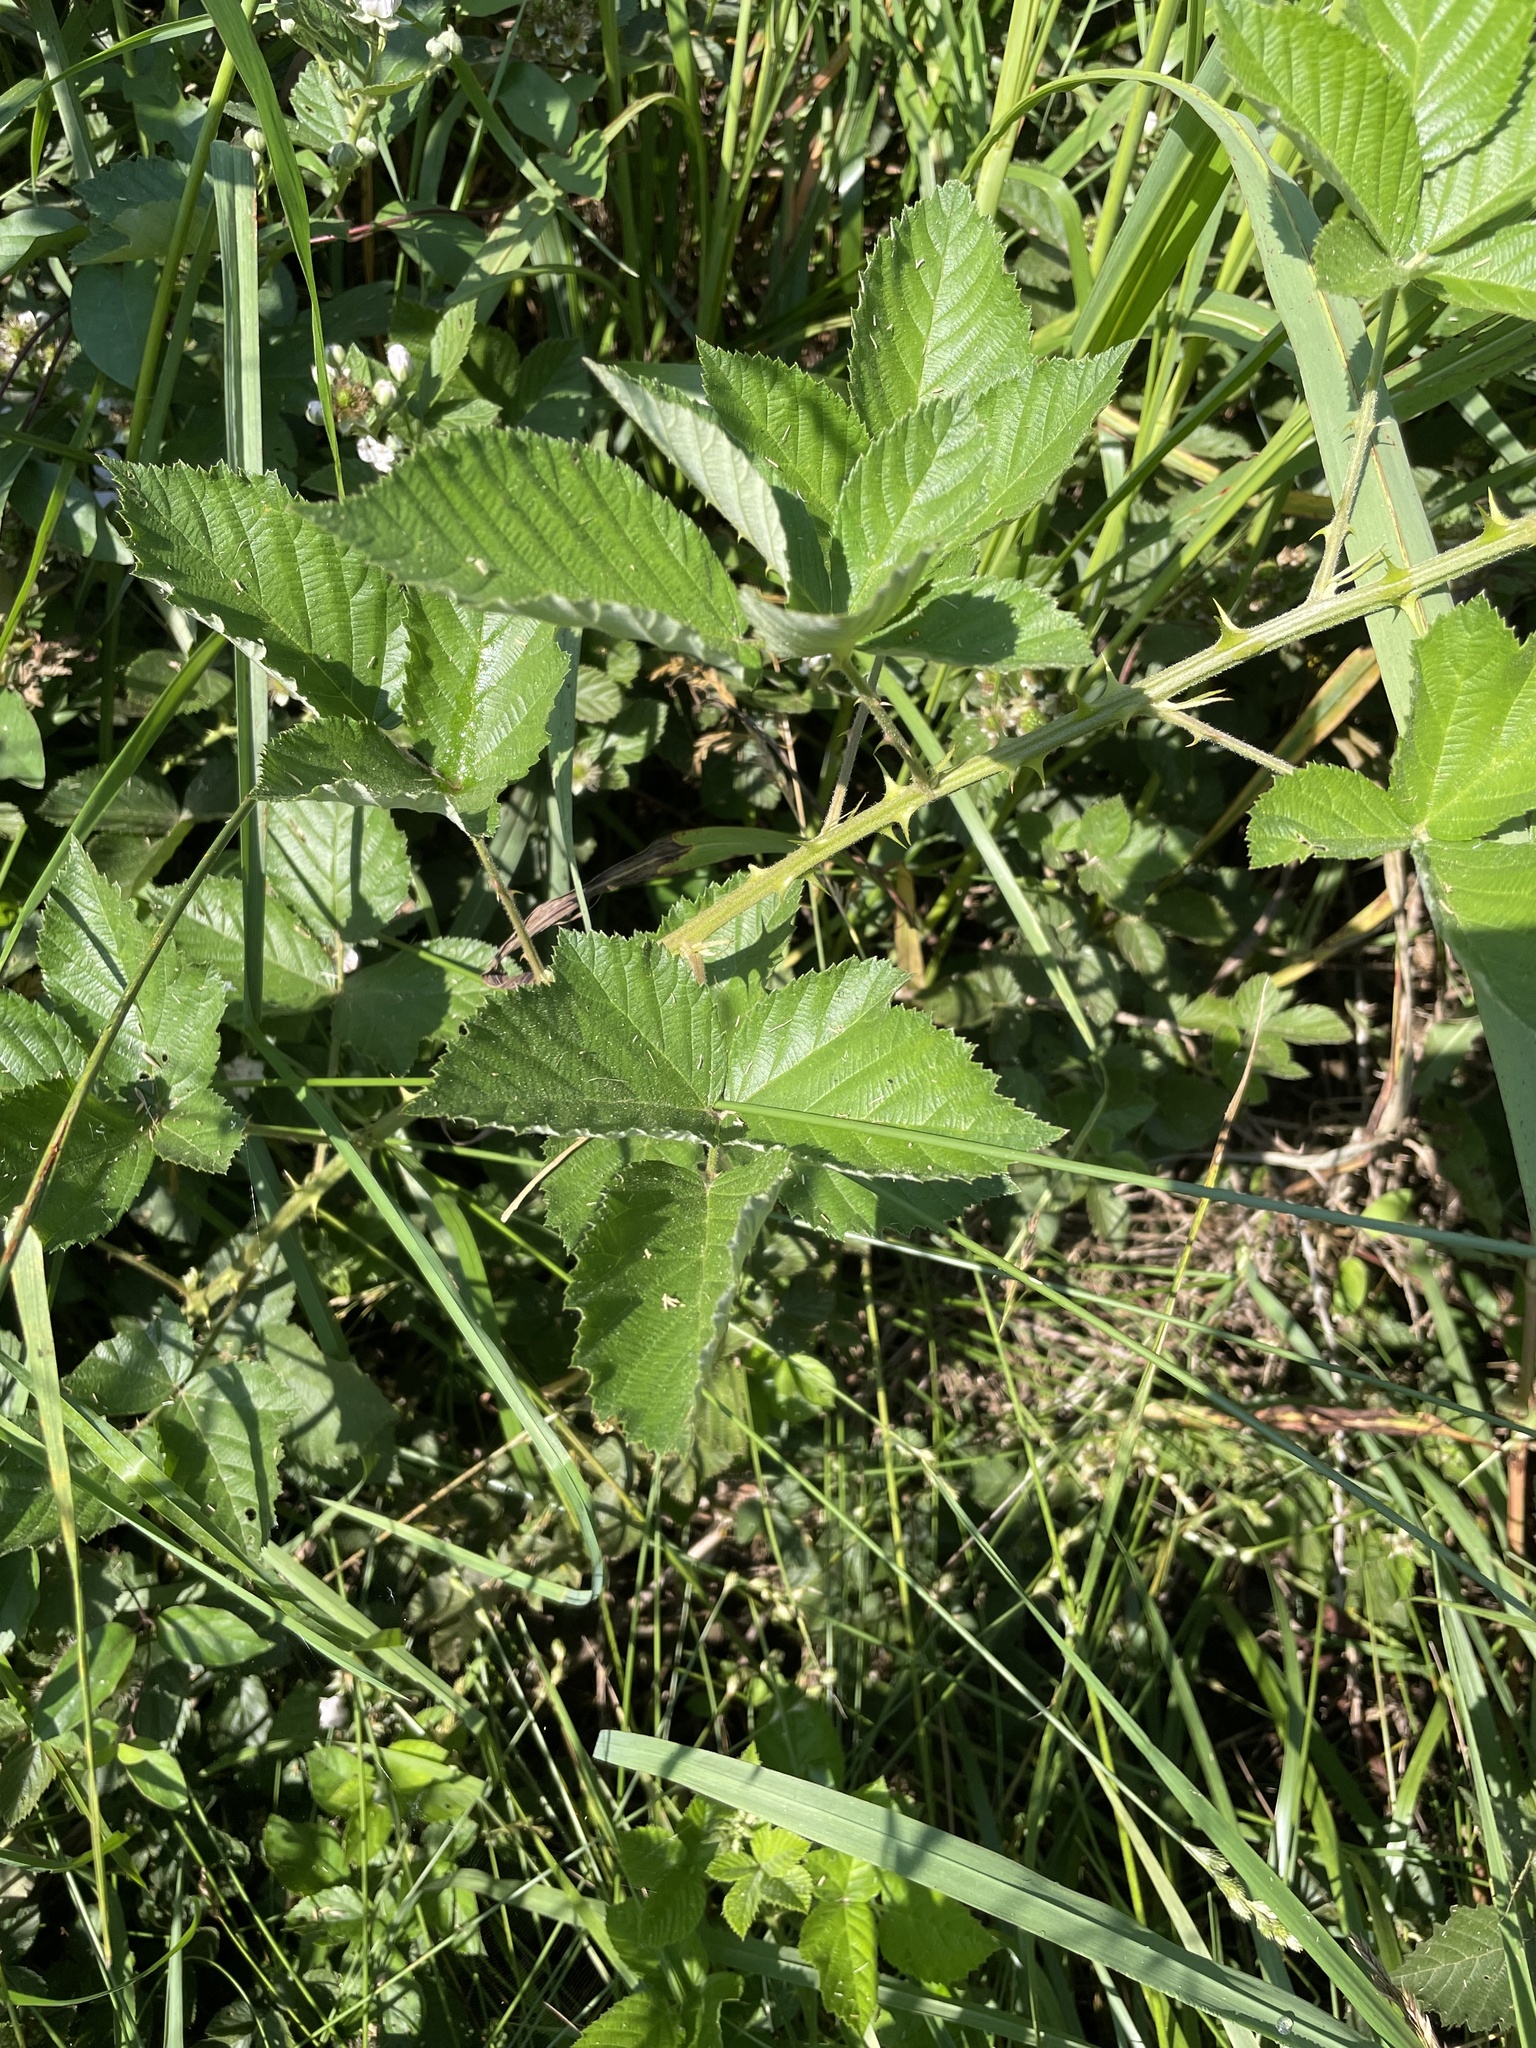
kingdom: Plantae
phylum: Tracheophyta
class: Magnoliopsida
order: Rosales
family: Rosaceae
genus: Rubus
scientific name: Rubus bifrons
